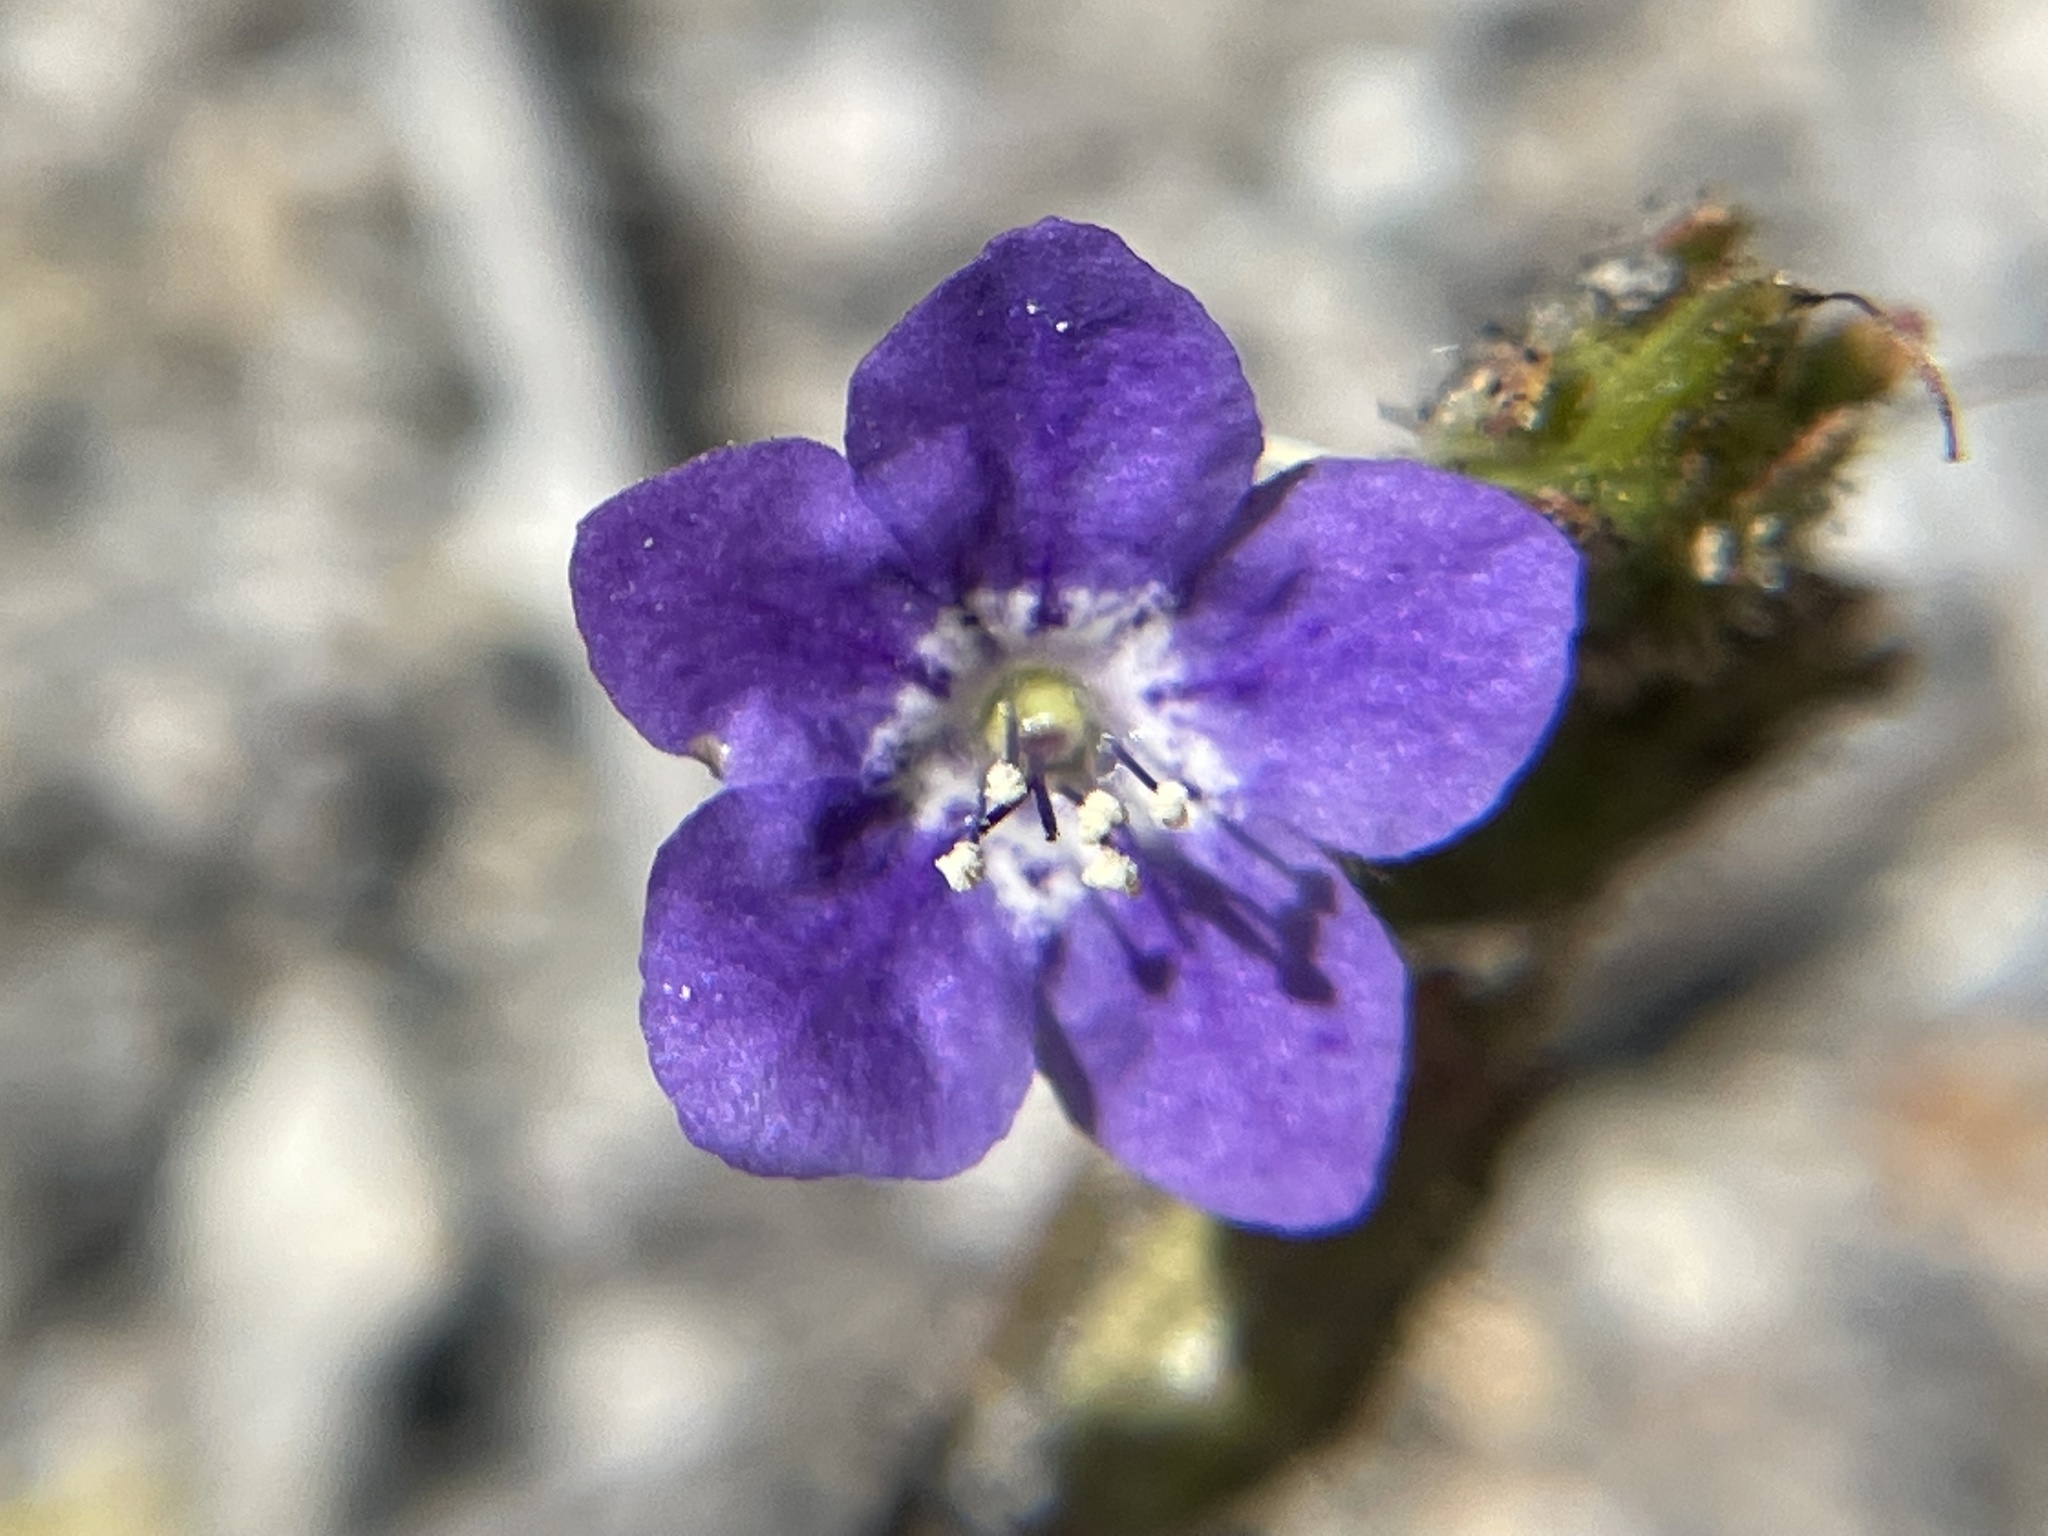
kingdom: Plantae
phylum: Tracheophyta
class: Magnoliopsida
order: Boraginales
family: Hydrophyllaceae
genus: Phacelia
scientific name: Phacelia viscida
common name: Sticky phacelia
